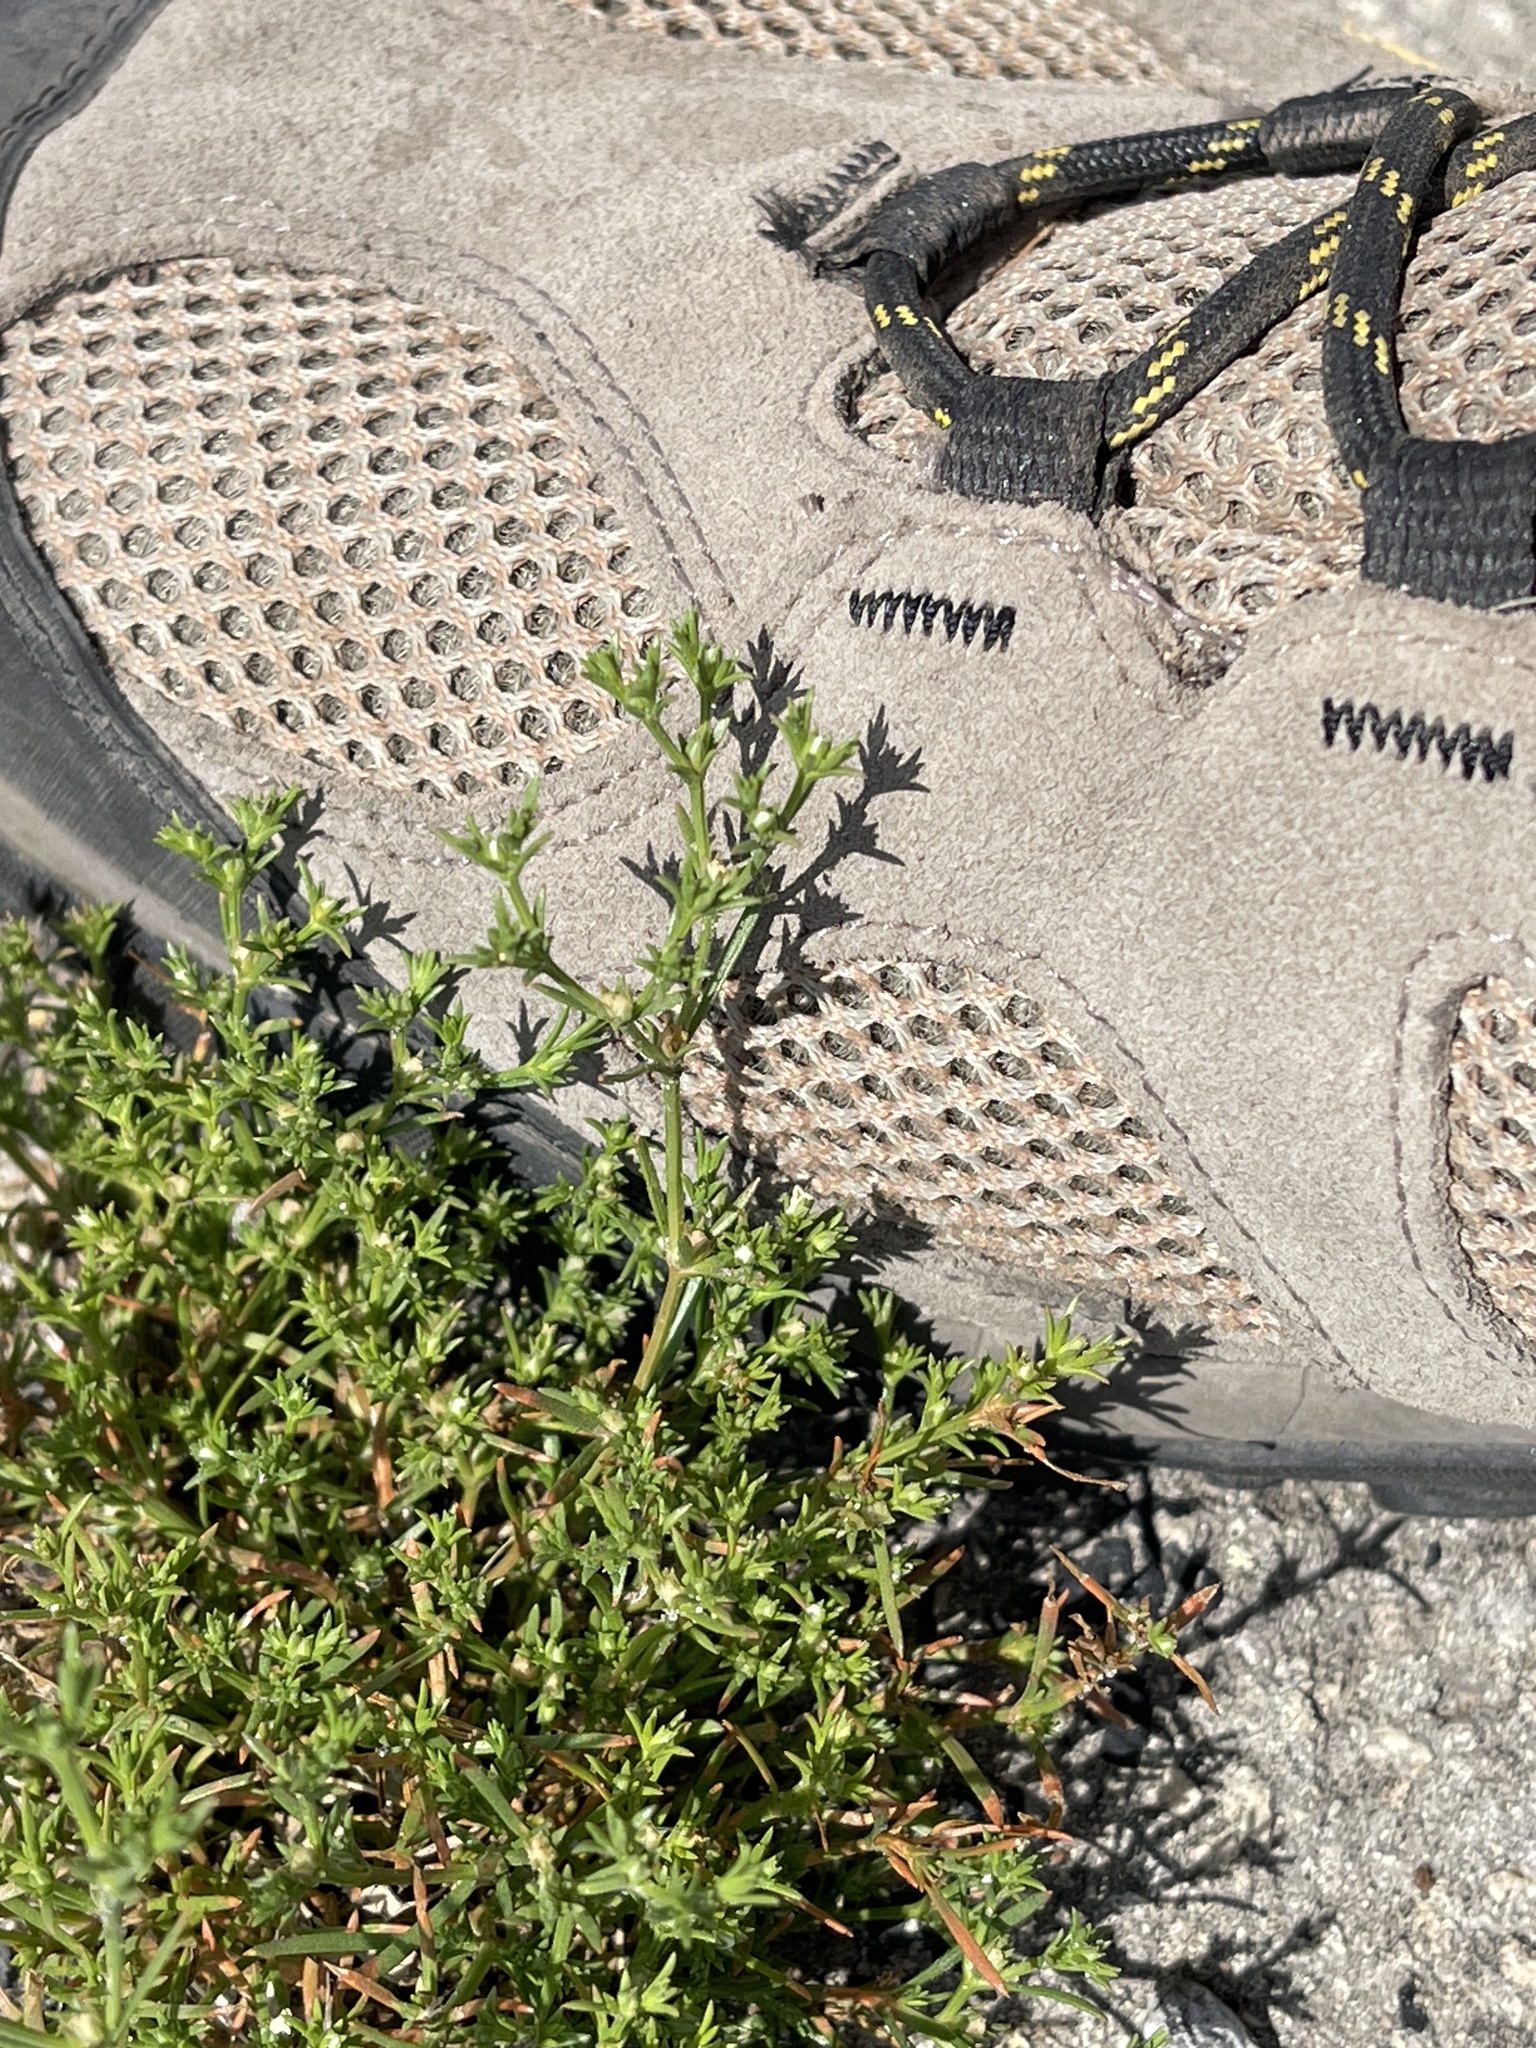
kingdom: Plantae
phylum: Tracheophyta
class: Magnoliopsida
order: Lamiales
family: Tetrachondraceae
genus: Polypremum
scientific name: Polypremum procumbens
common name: Juniper-leaf
